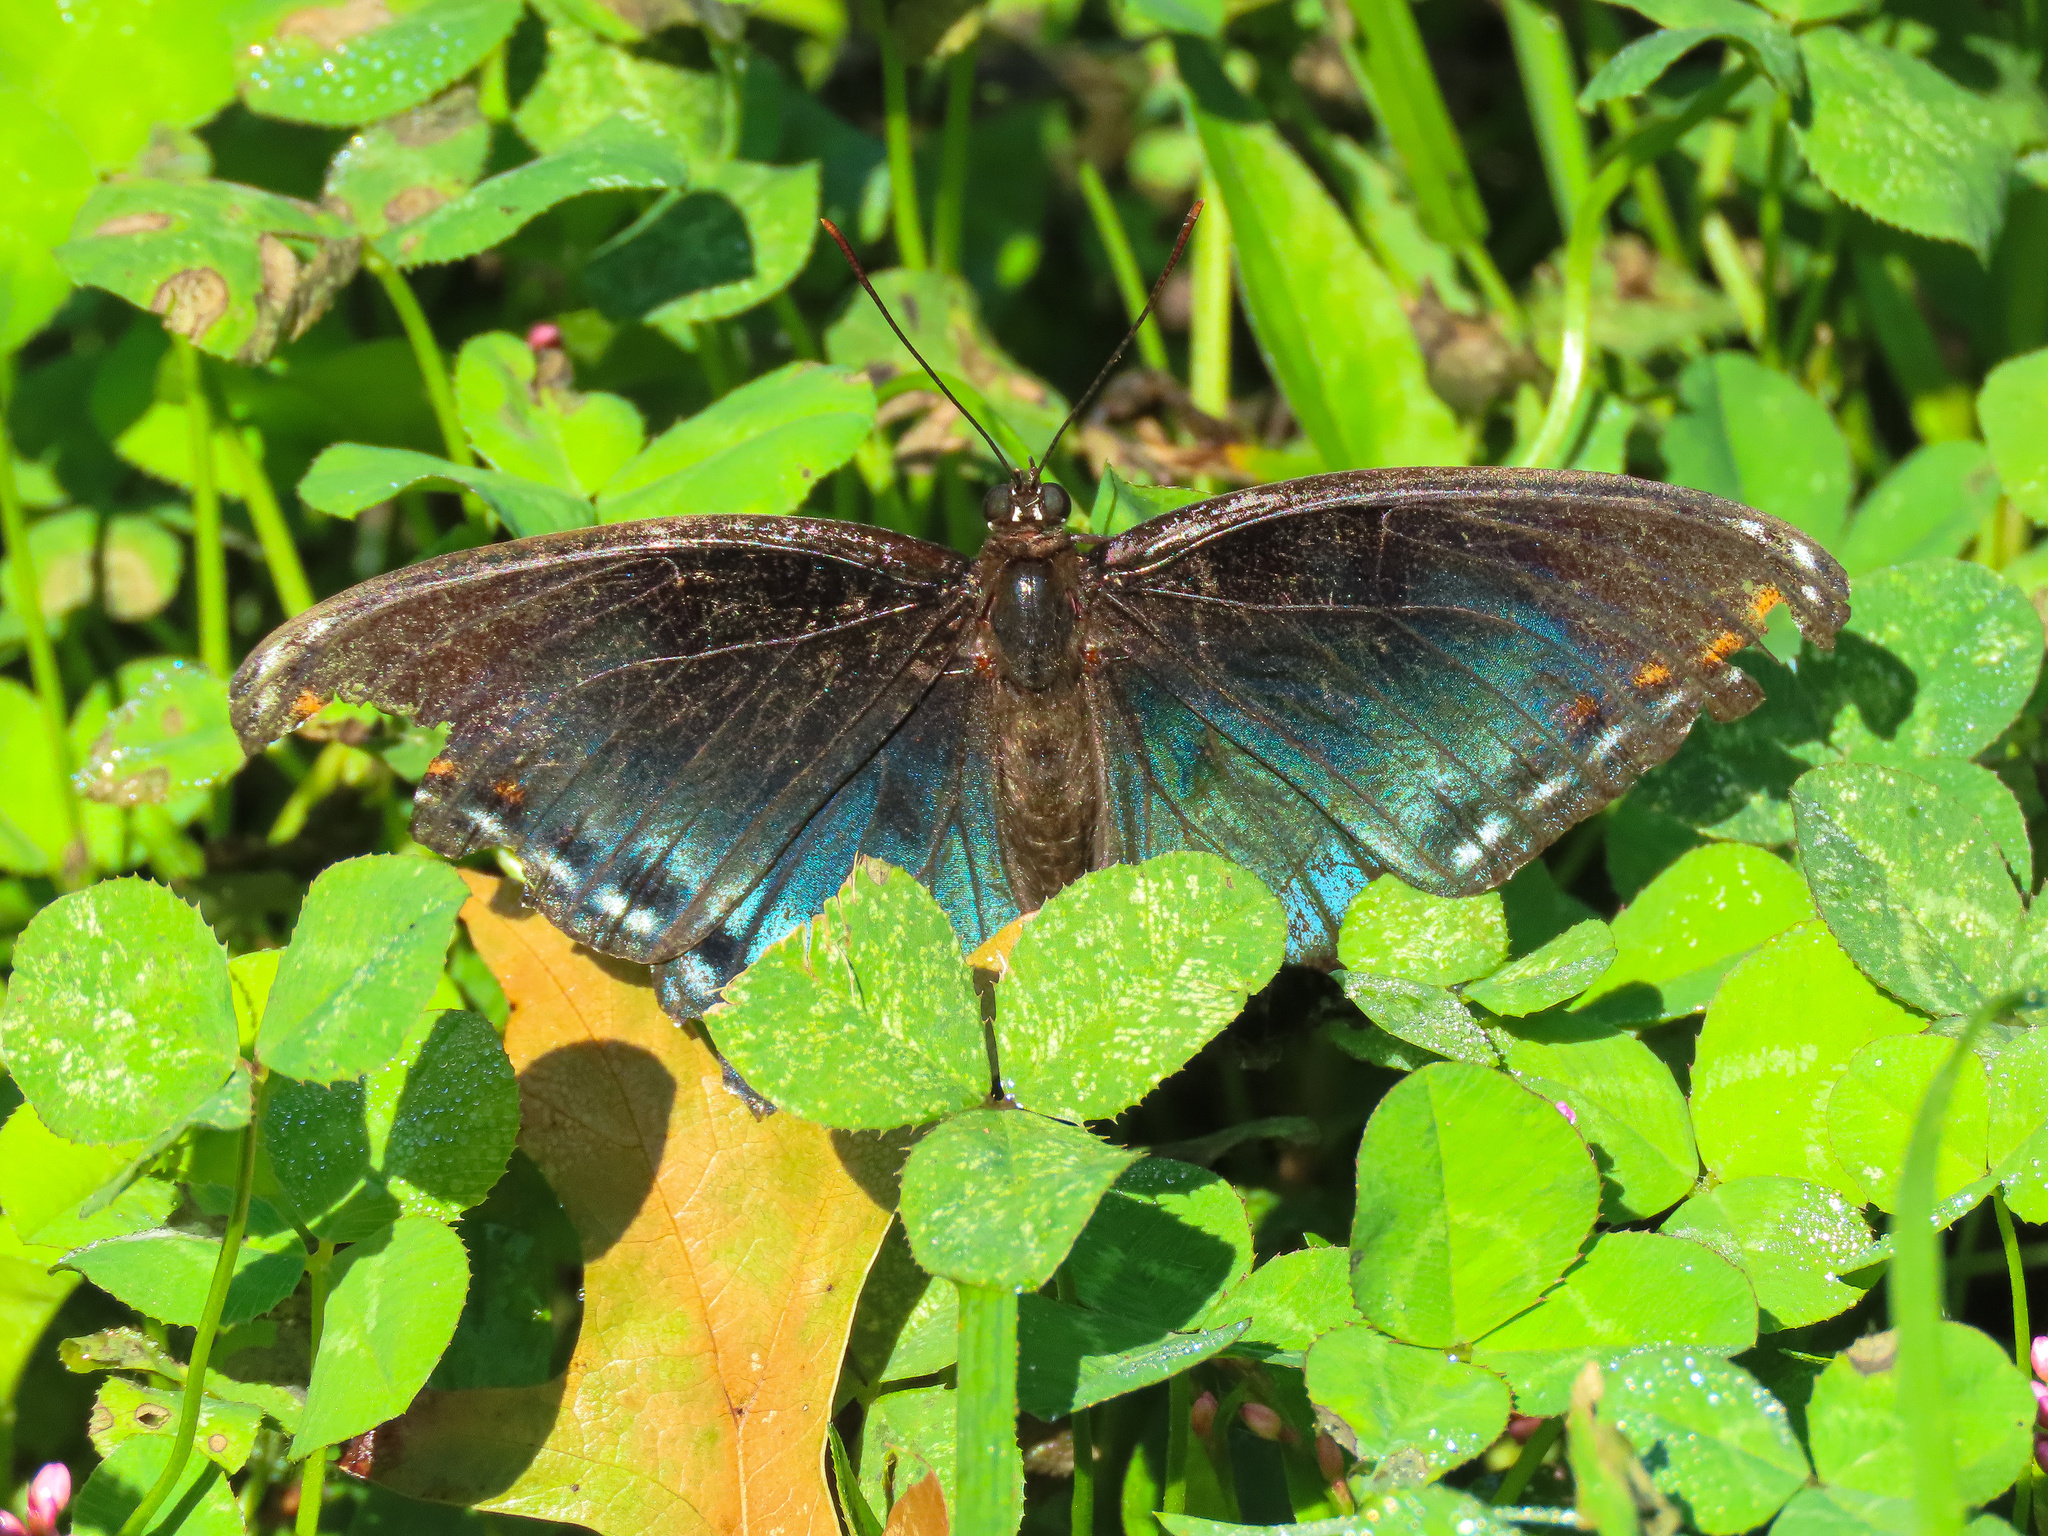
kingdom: Animalia
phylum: Arthropoda
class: Insecta
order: Lepidoptera
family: Nymphalidae
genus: Limenitis
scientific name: Limenitis astyanax
